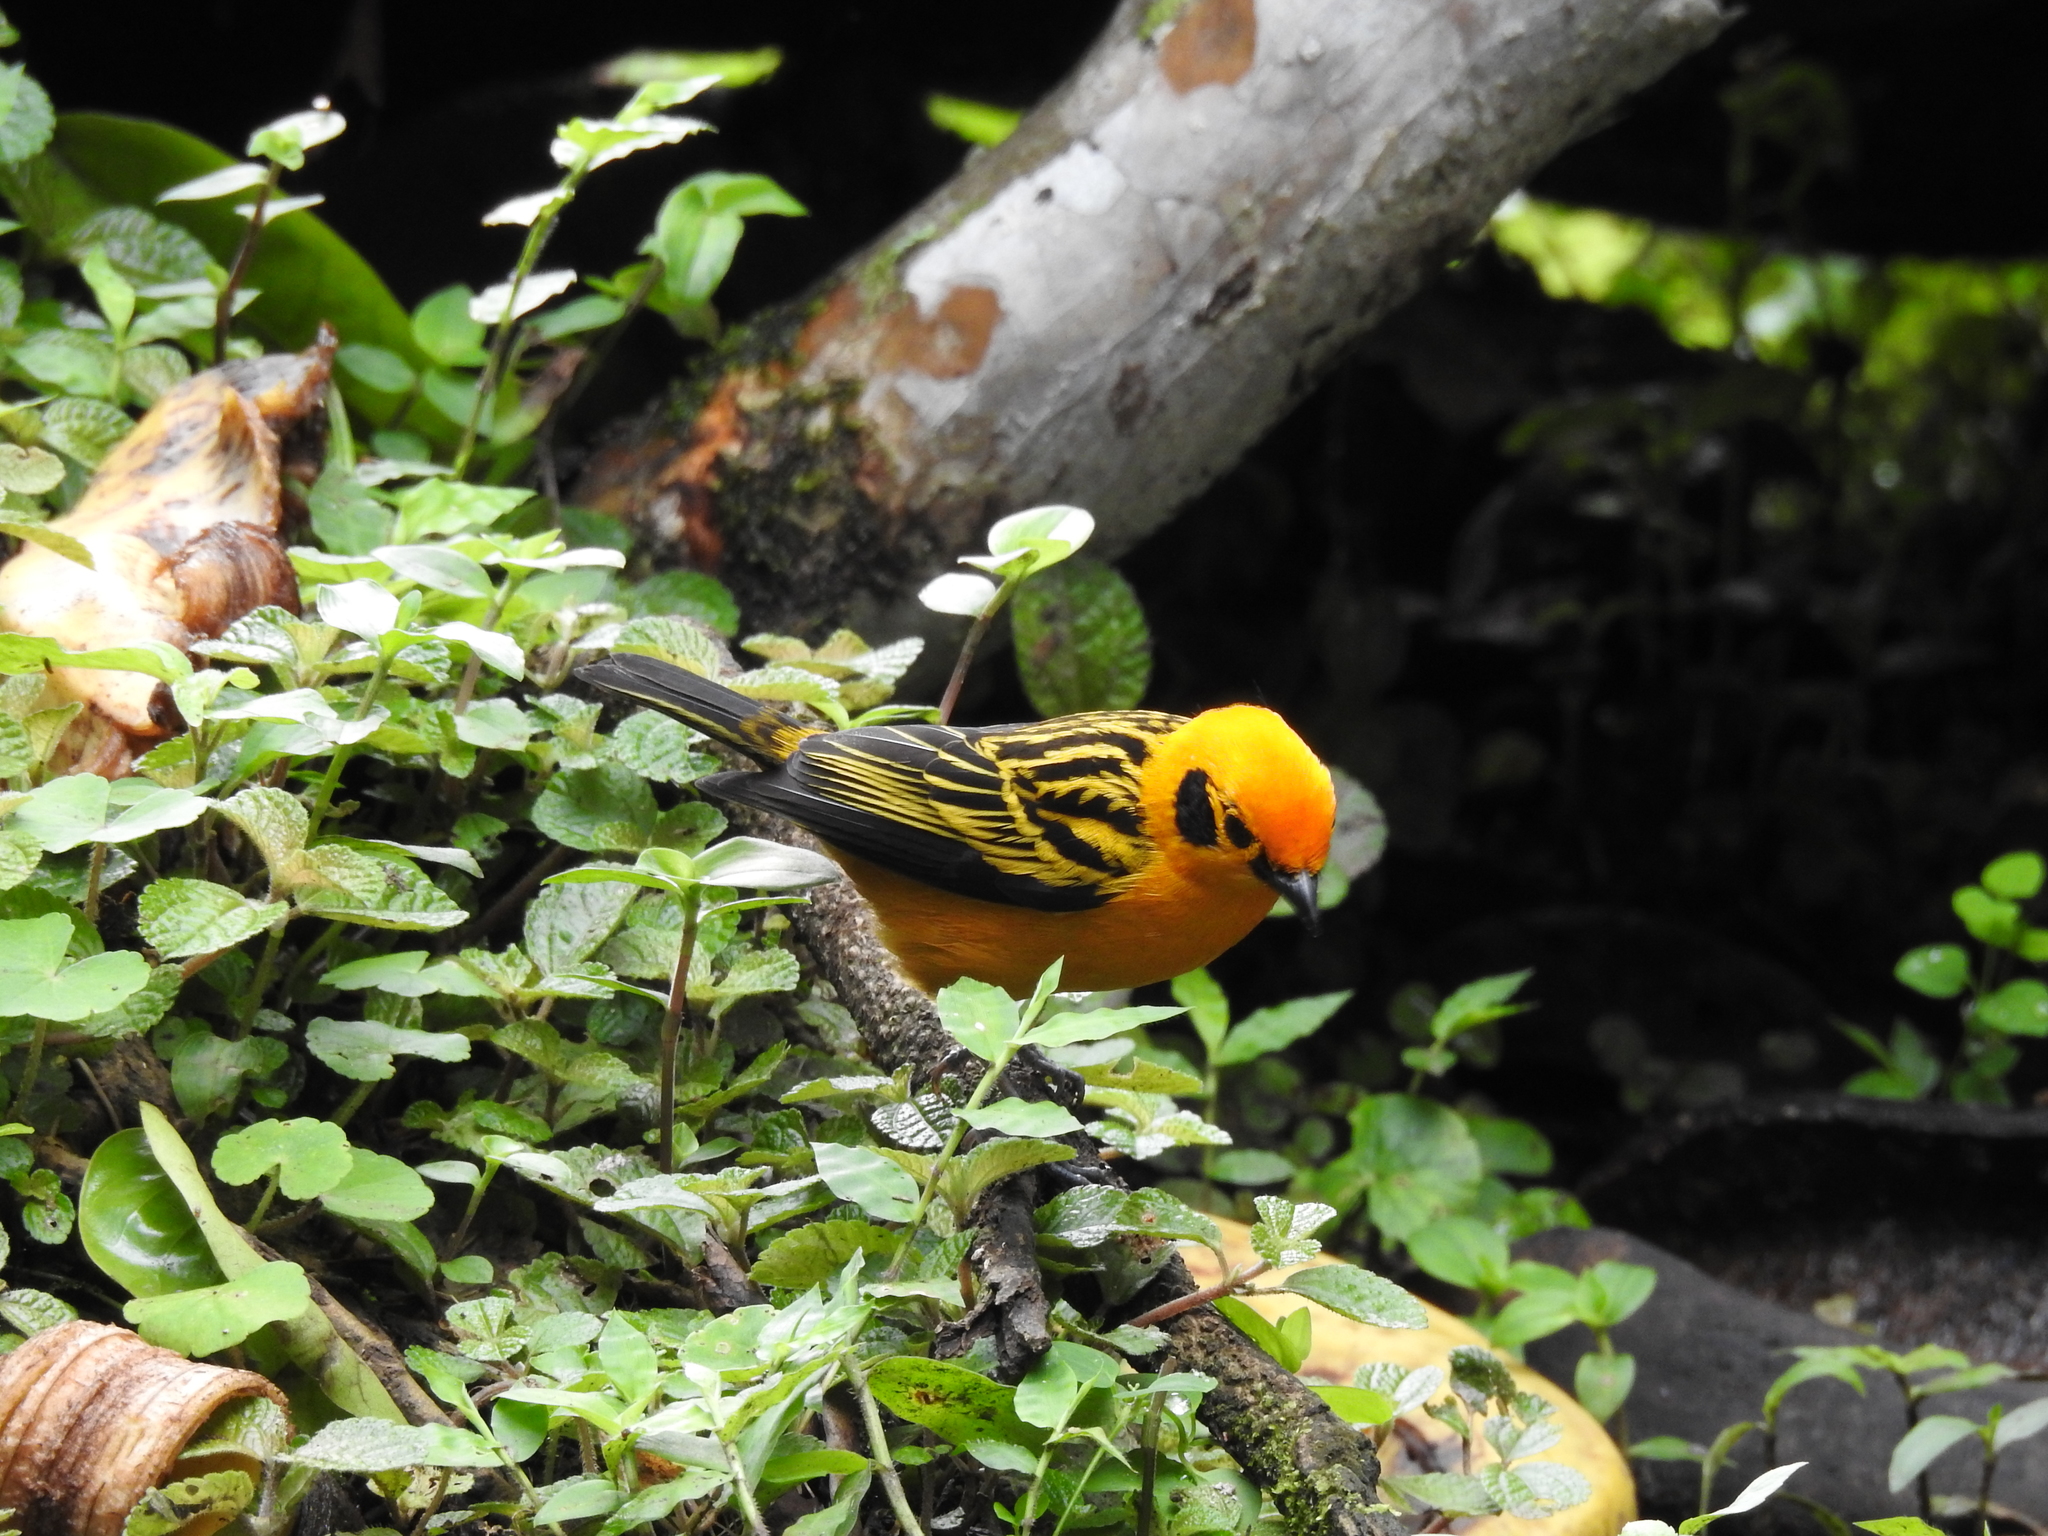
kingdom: Animalia
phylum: Chordata
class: Aves
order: Passeriformes
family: Thraupidae
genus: Tangara
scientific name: Tangara arthus
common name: Golden tanager
